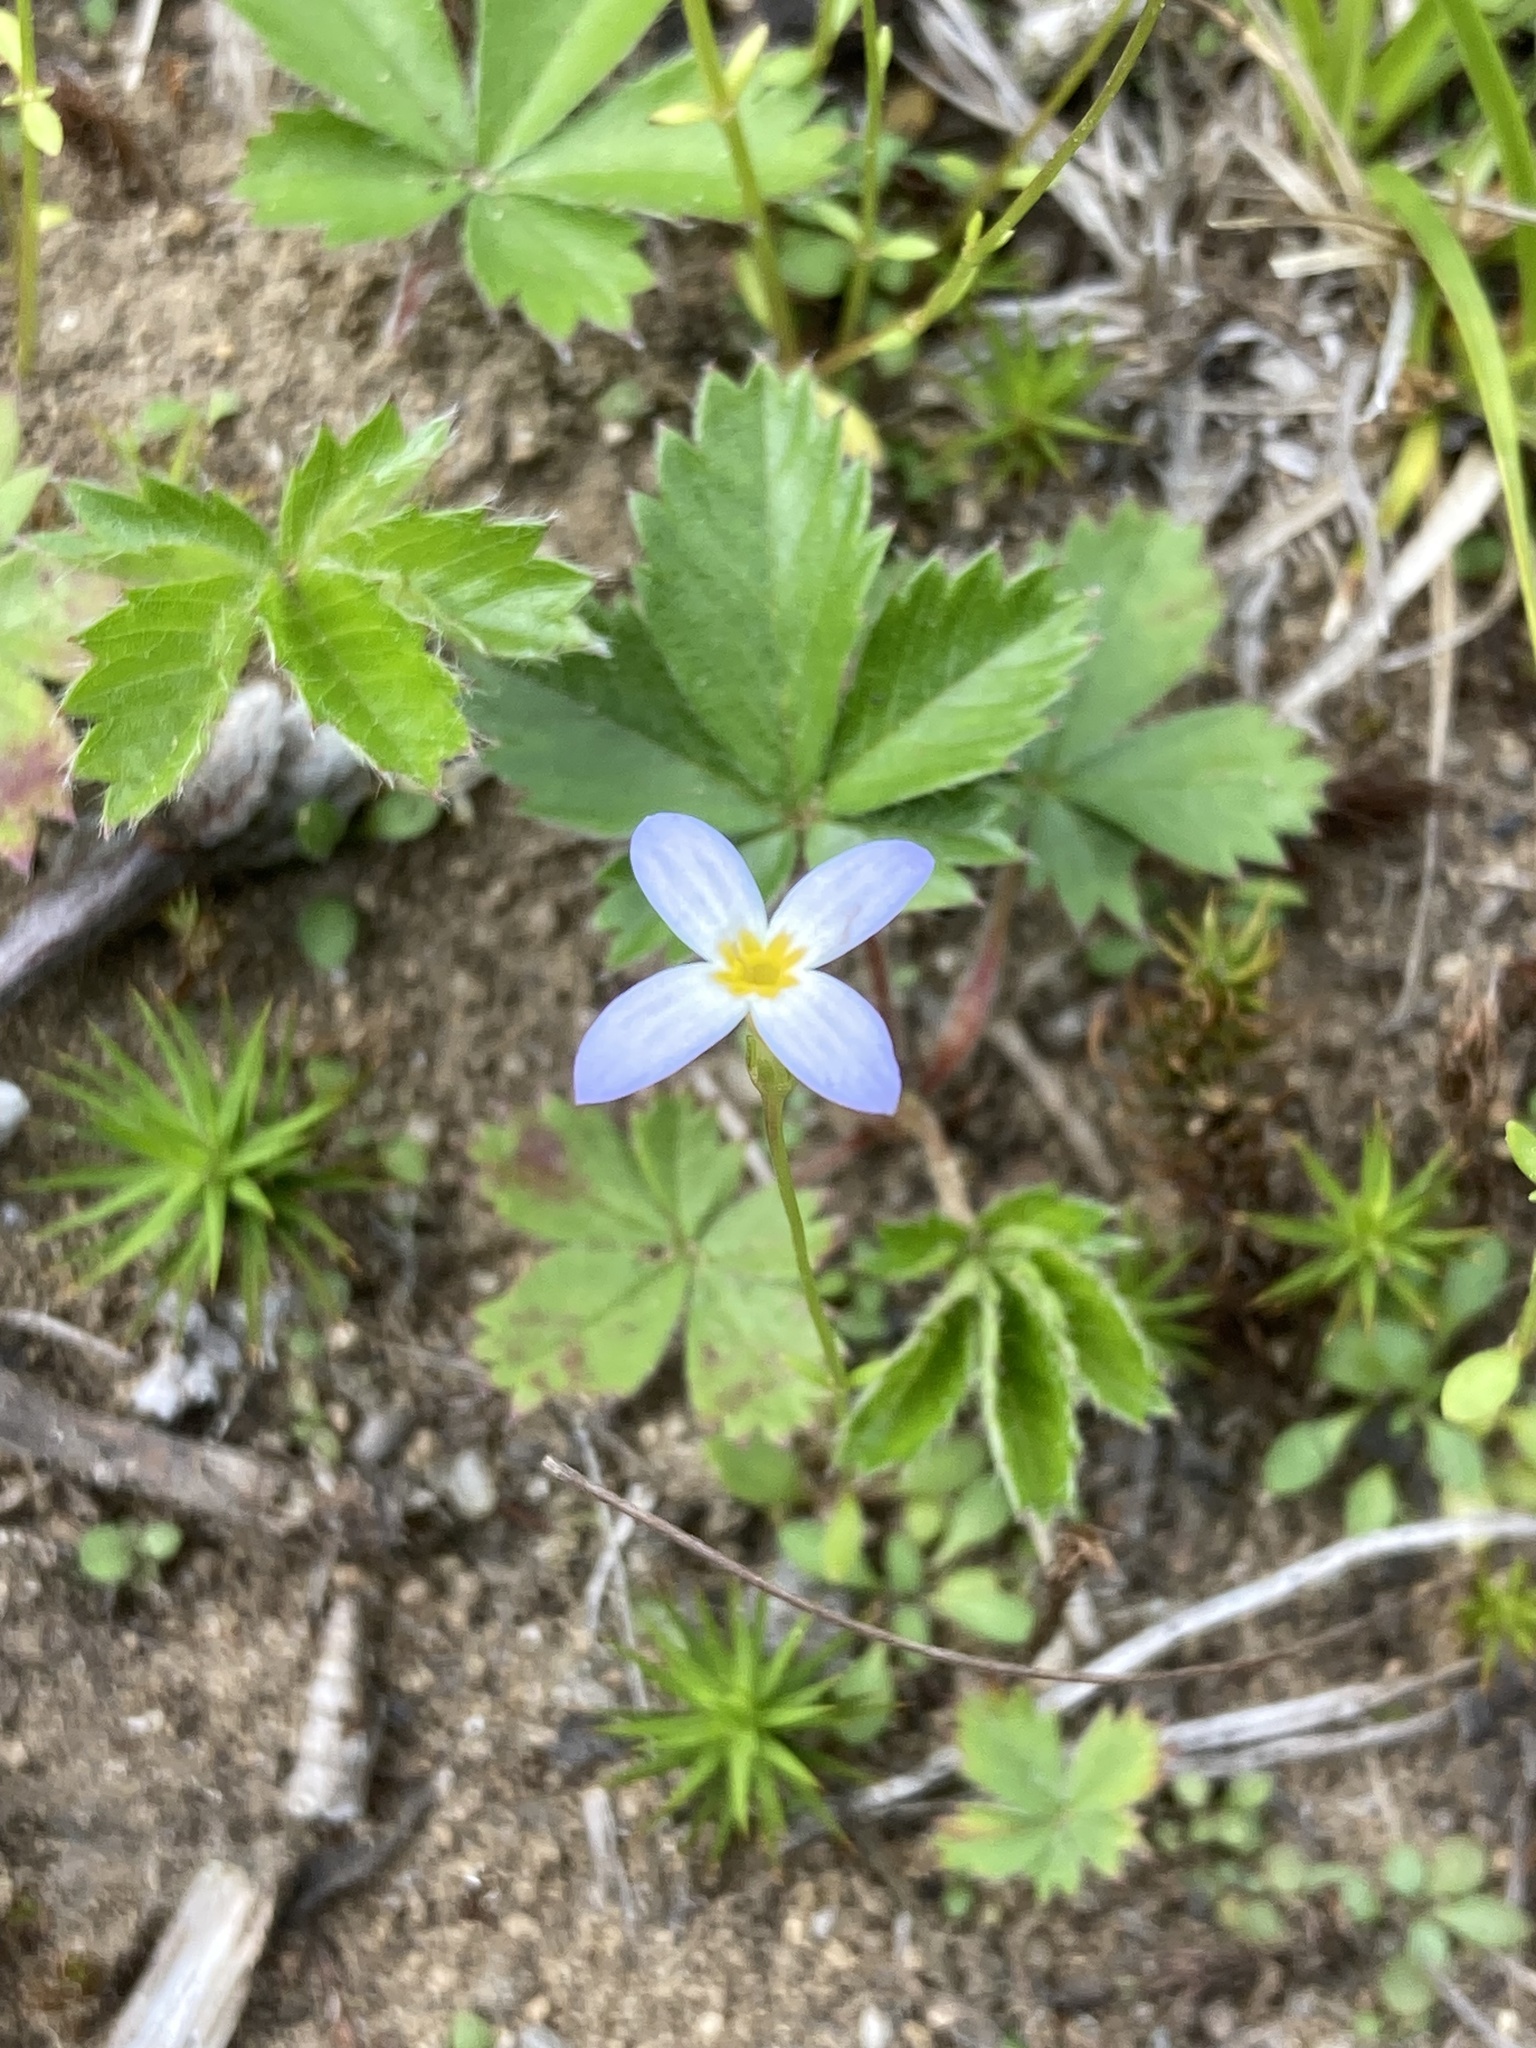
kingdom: Plantae
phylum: Tracheophyta
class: Magnoliopsida
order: Gentianales
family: Rubiaceae
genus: Houstonia
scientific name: Houstonia caerulea
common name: Bluets
